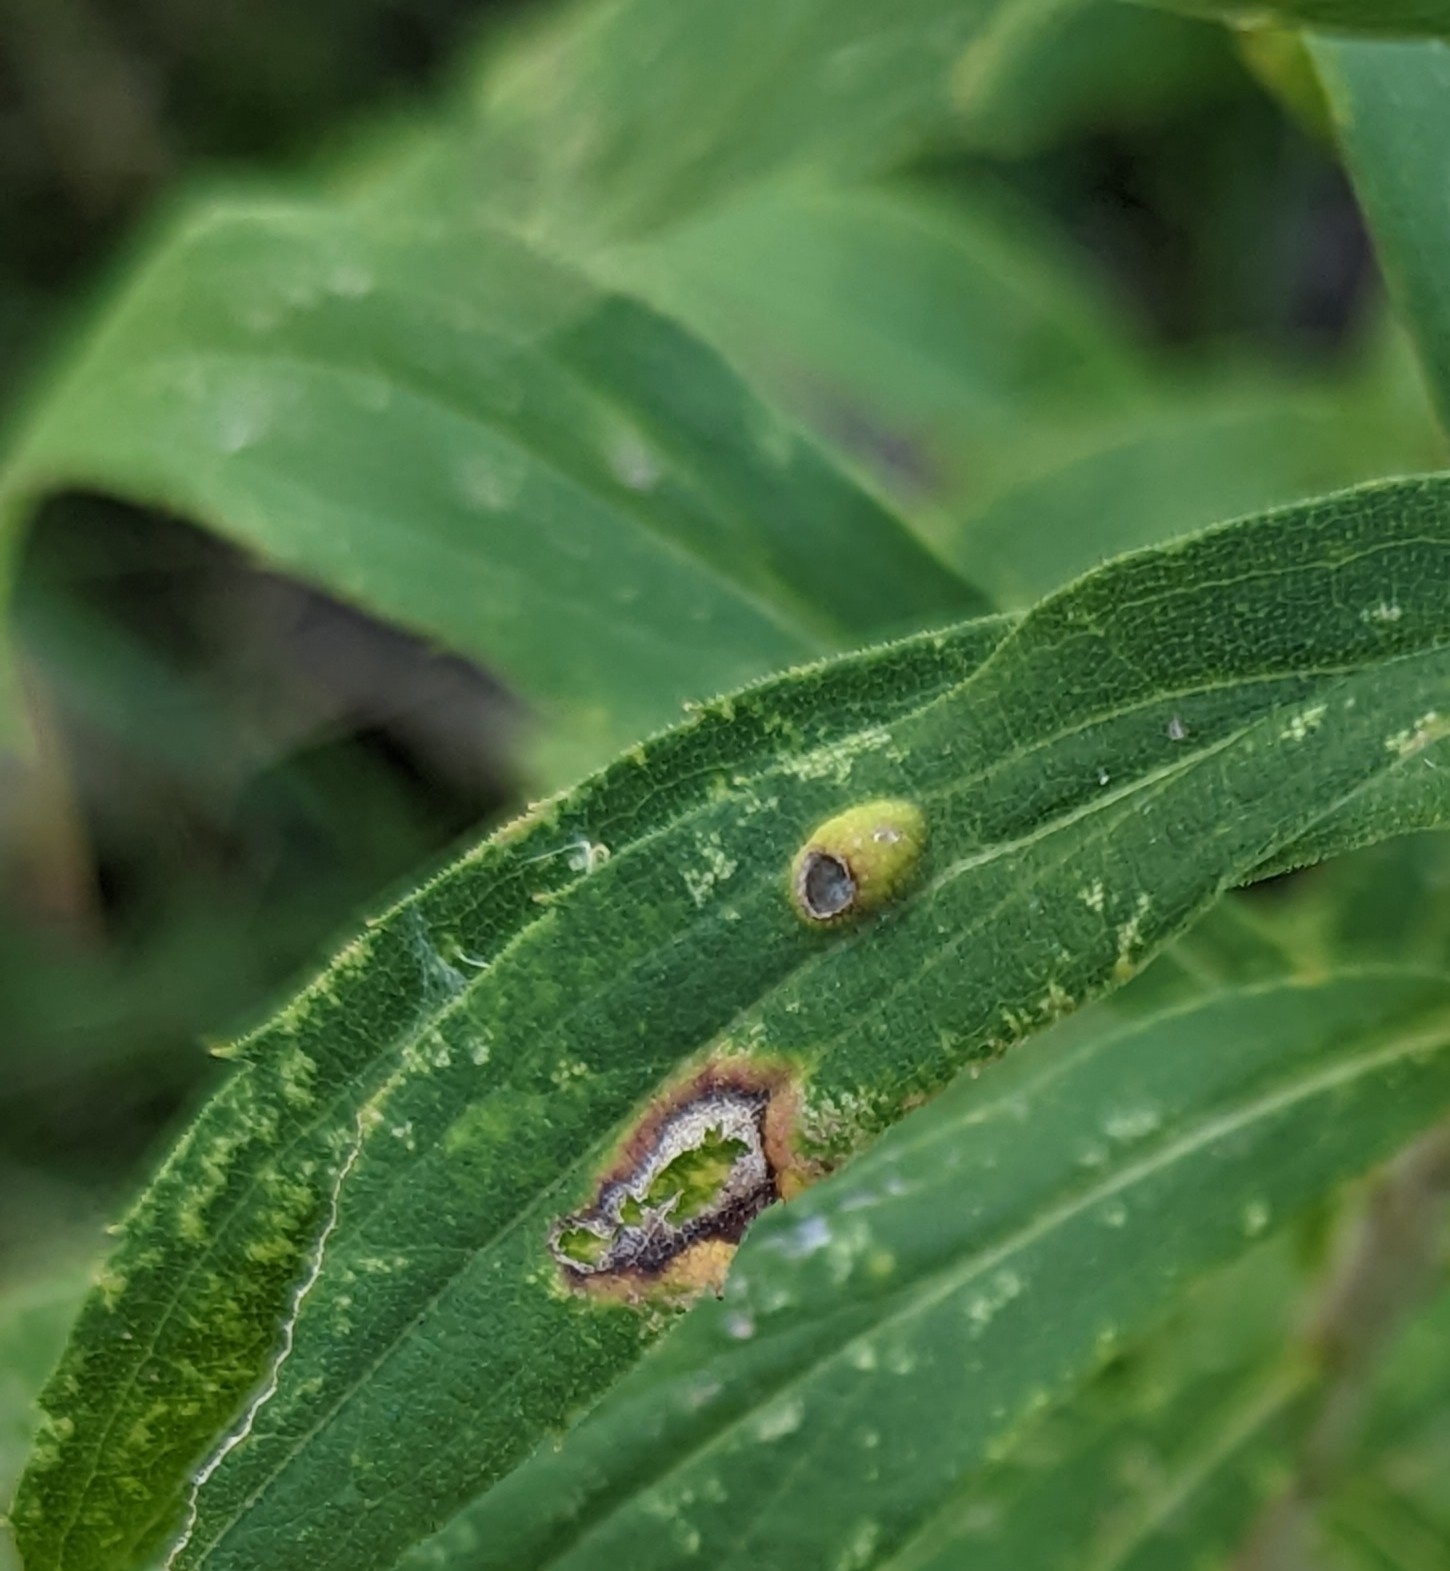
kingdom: Animalia
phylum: Arthropoda
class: Insecta
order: Diptera
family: Cecidomyiidae
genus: Asphondylia
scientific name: Asphondylia solidaginis
